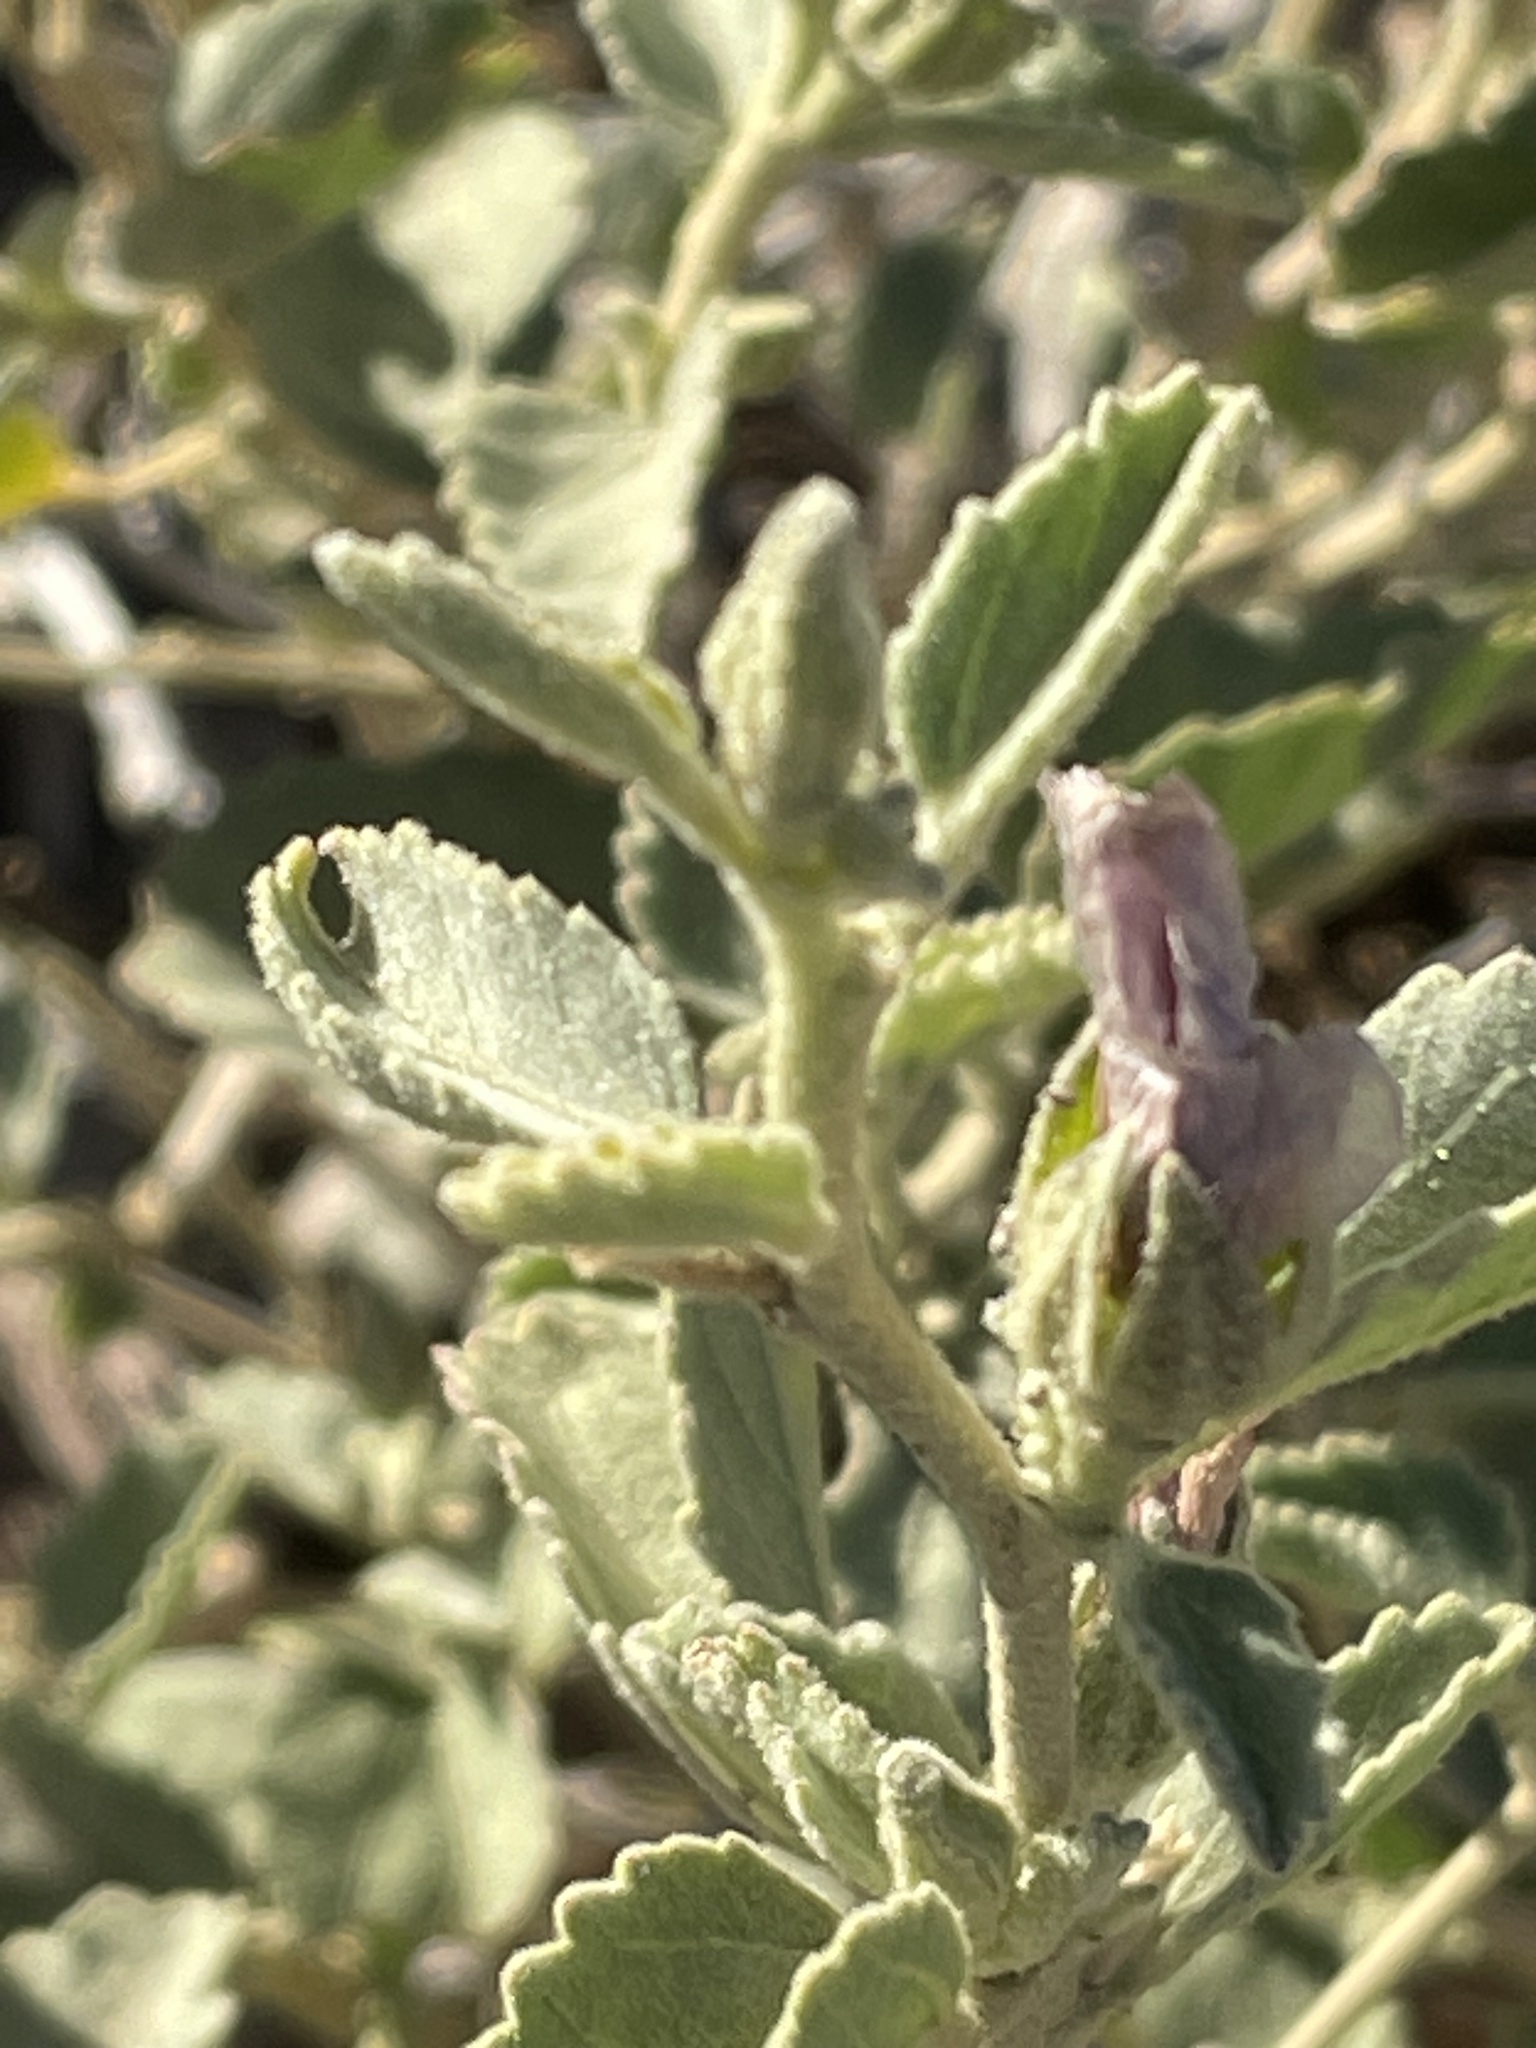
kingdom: Plantae
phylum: Tracheophyta
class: Magnoliopsida
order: Malvales
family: Malvaceae
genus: Hibiscus
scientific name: Hibiscus denudatus
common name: Paleface
